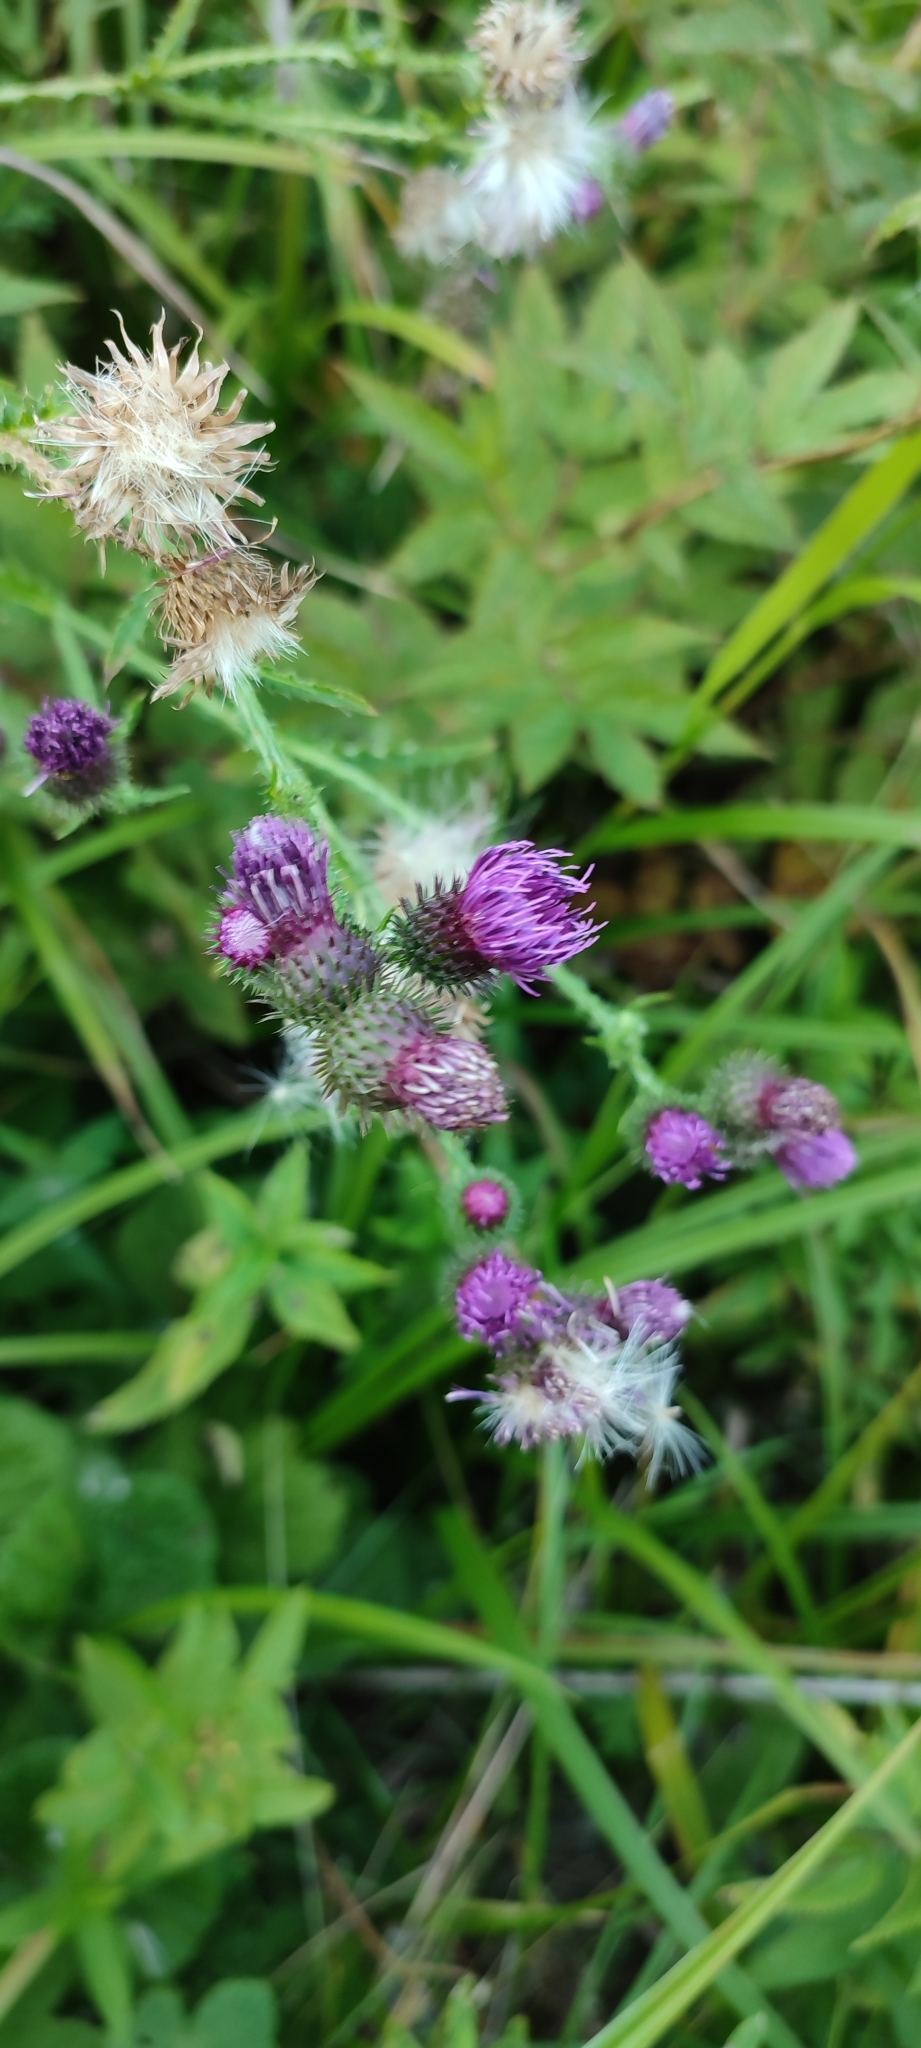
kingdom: Plantae
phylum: Tracheophyta
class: Magnoliopsida
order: Asterales
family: Asteraceae
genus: Carduus
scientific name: Carduus crispus
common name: Welted thistle
